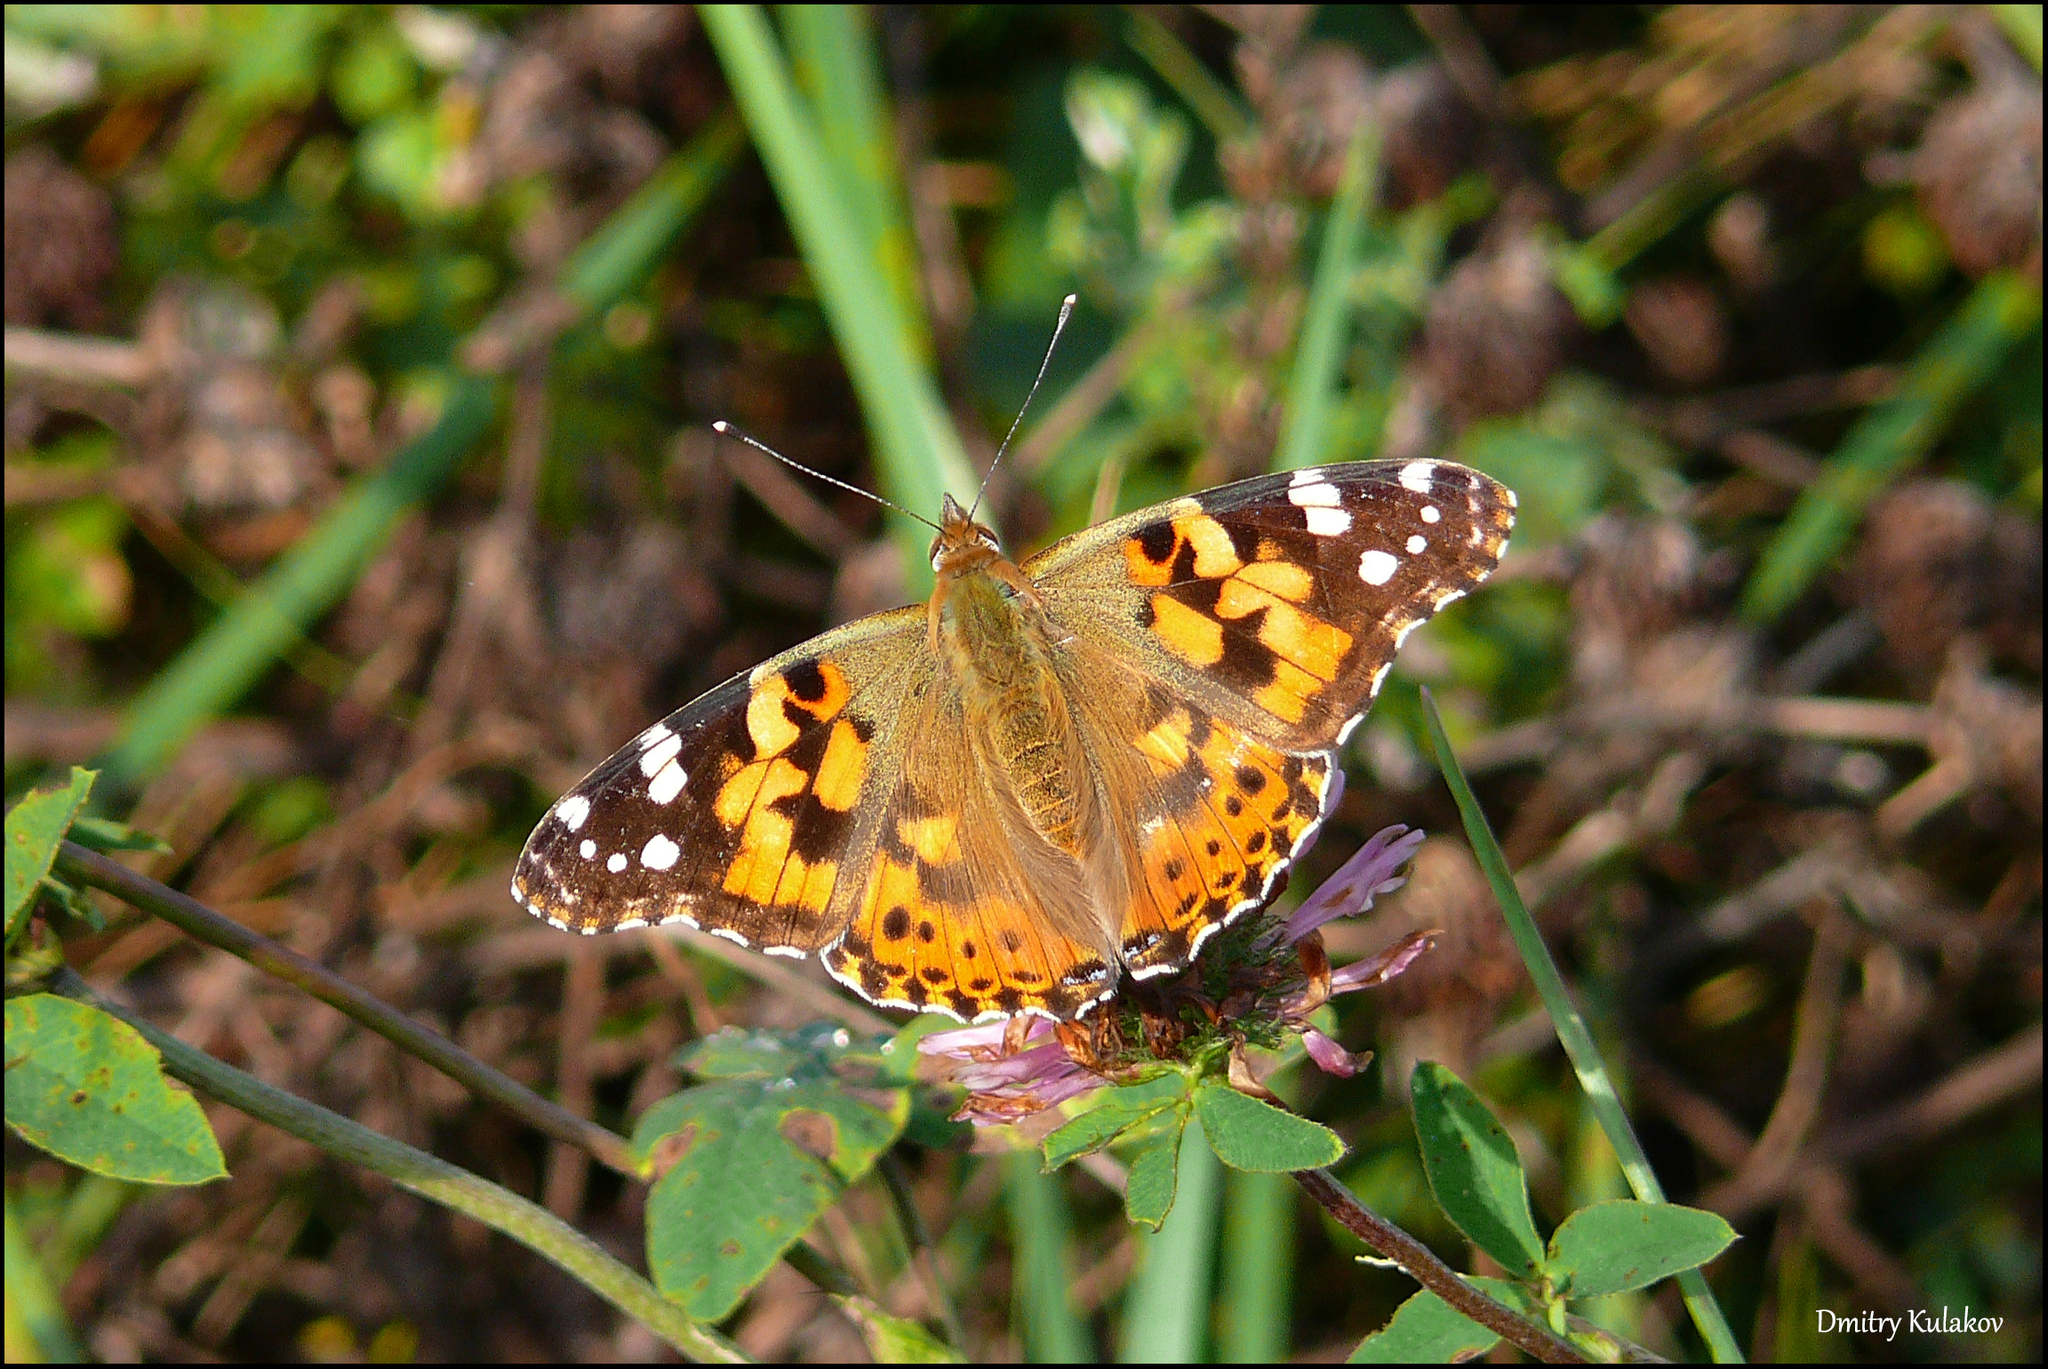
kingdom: Animalia
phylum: Arthropoda
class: Insecta
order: Lepidoptera
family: Nymphalidae
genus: Vanessa
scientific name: Vanessa cardui
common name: Painted lady
